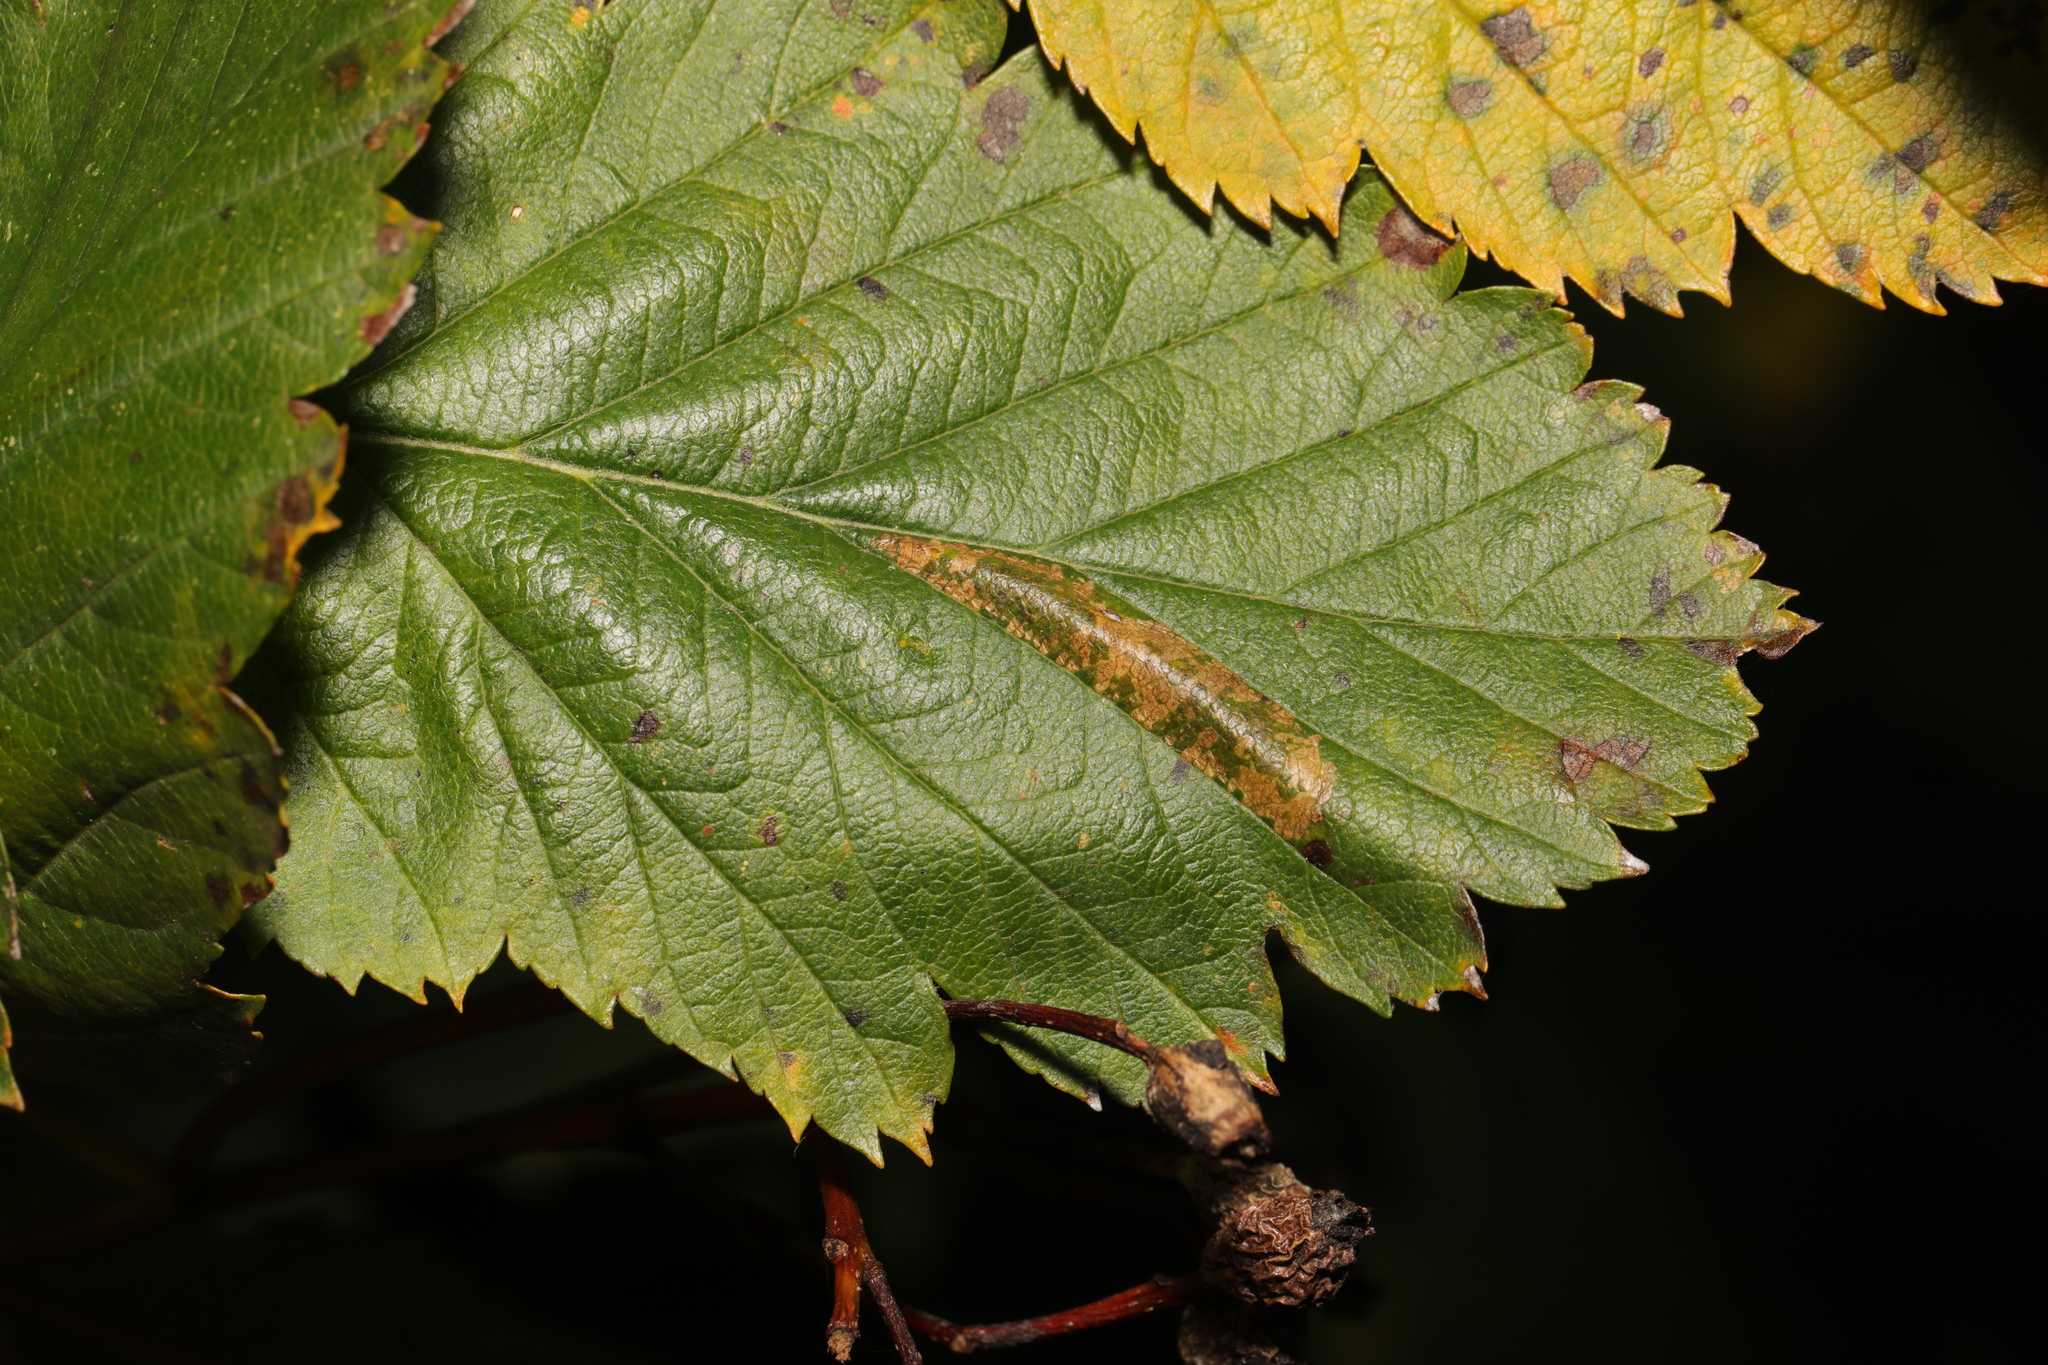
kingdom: Animalia
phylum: Arthropoda
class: Insecta
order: Lepidoptera
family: Gracillariidae
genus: Phyllonorycter
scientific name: Phyllonorycter mespilella
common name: Scarce brown midget
